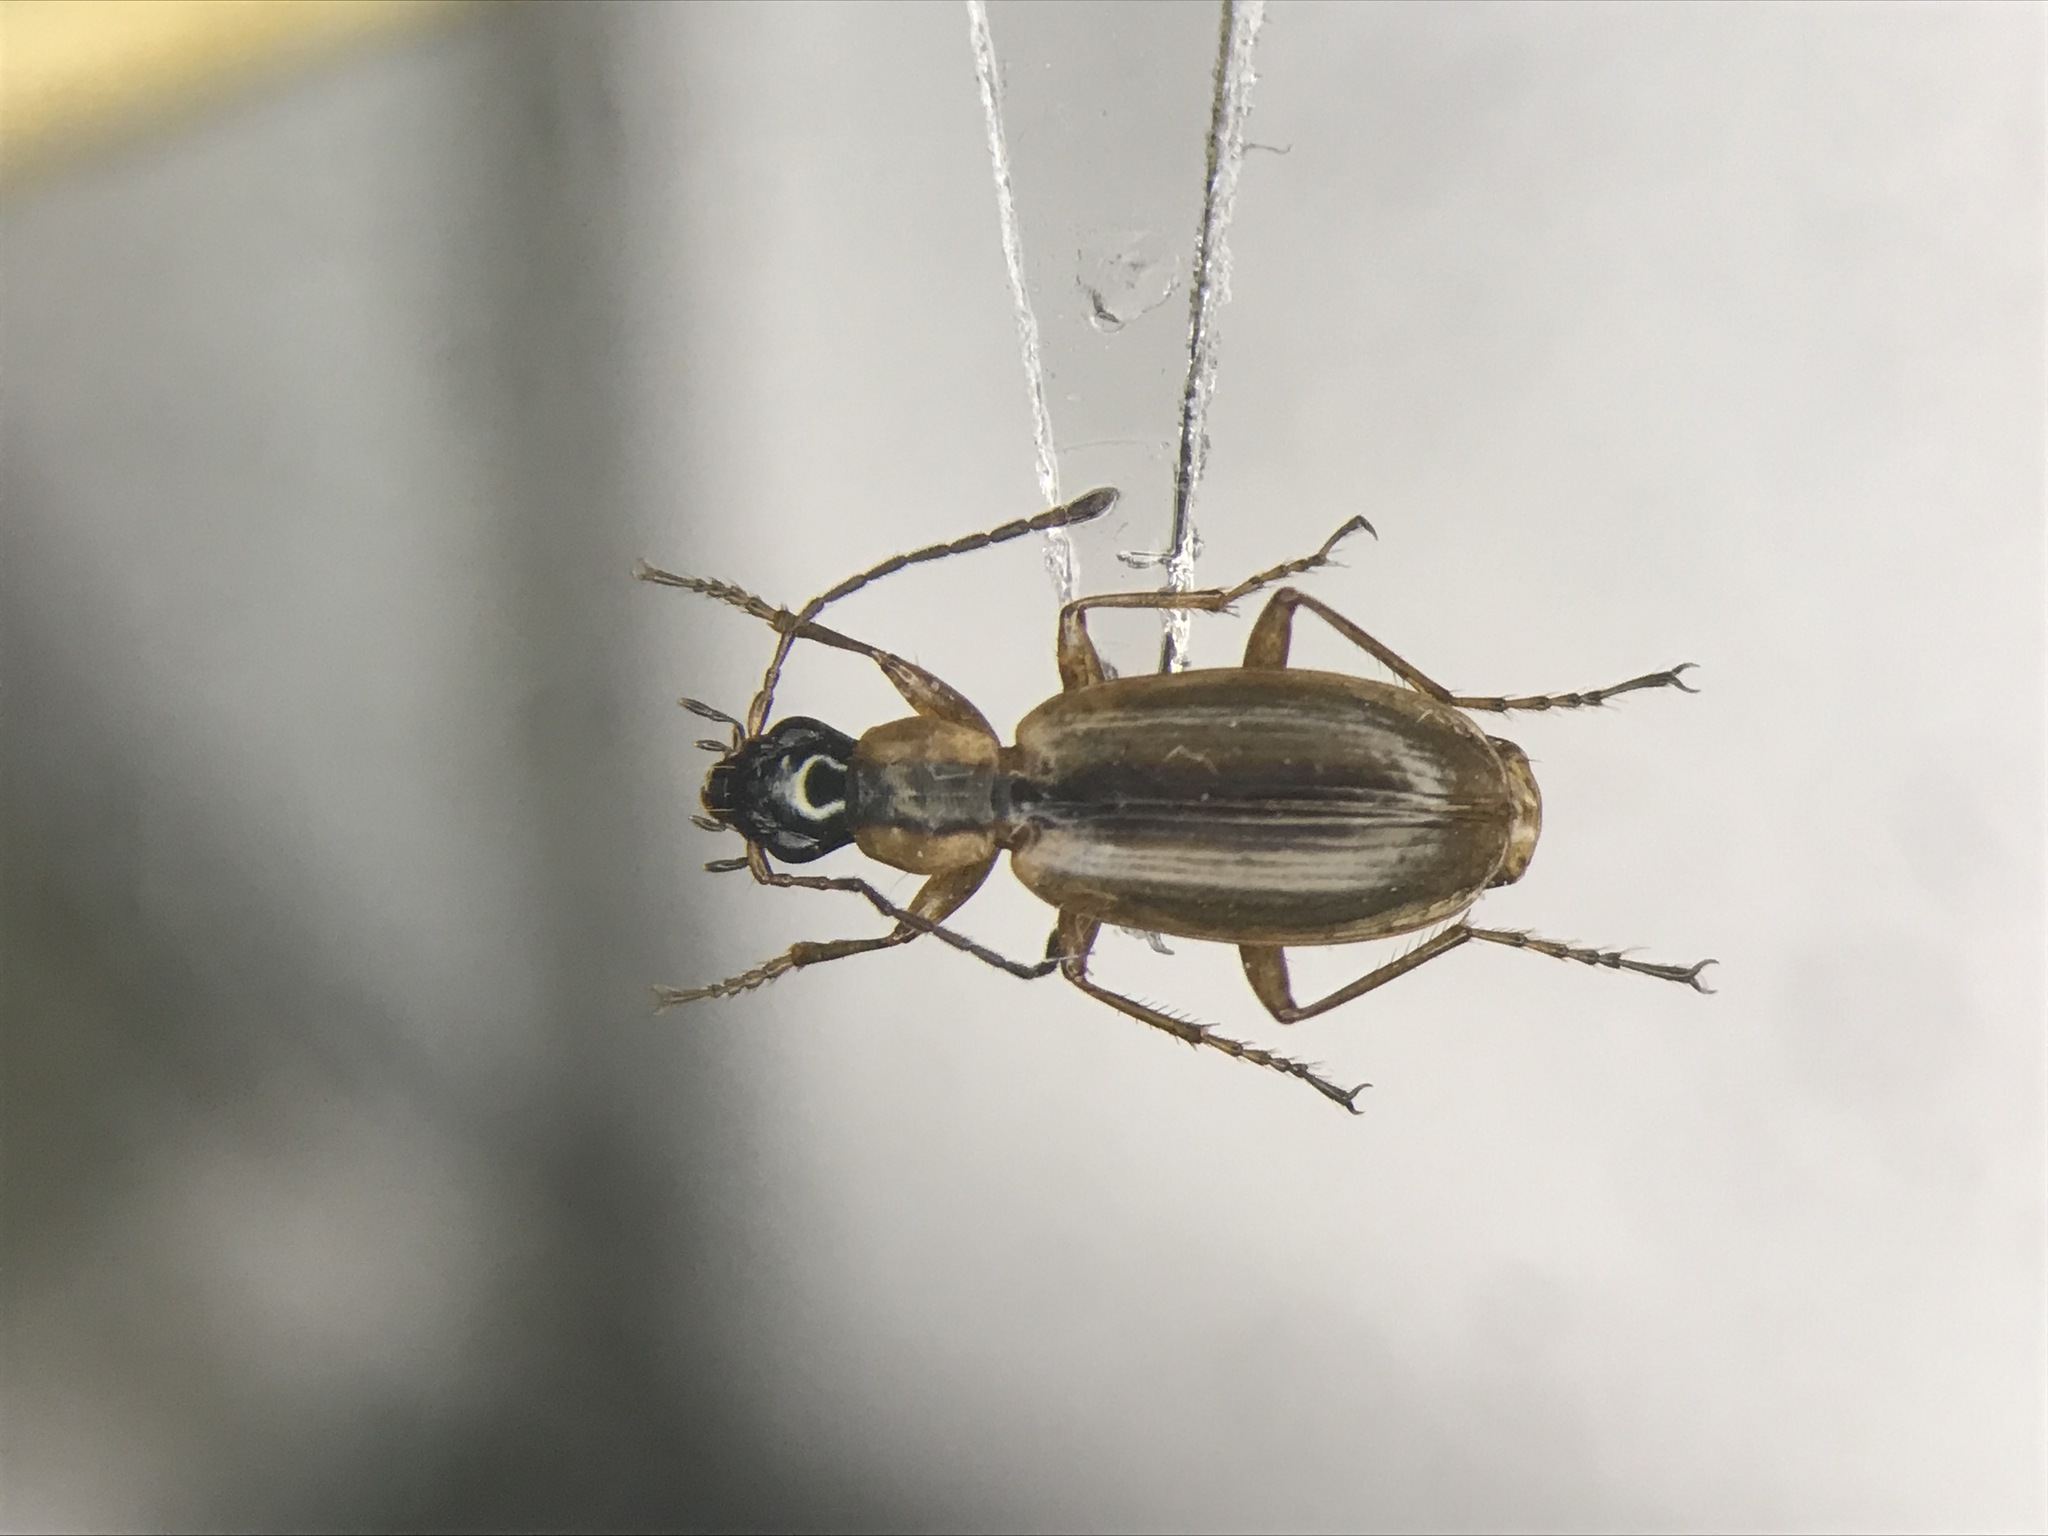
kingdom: Animalia
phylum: Arthropoda
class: Insecta
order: Coleoptera
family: Carabidae
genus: Agonum
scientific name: Agonum nigriceps
